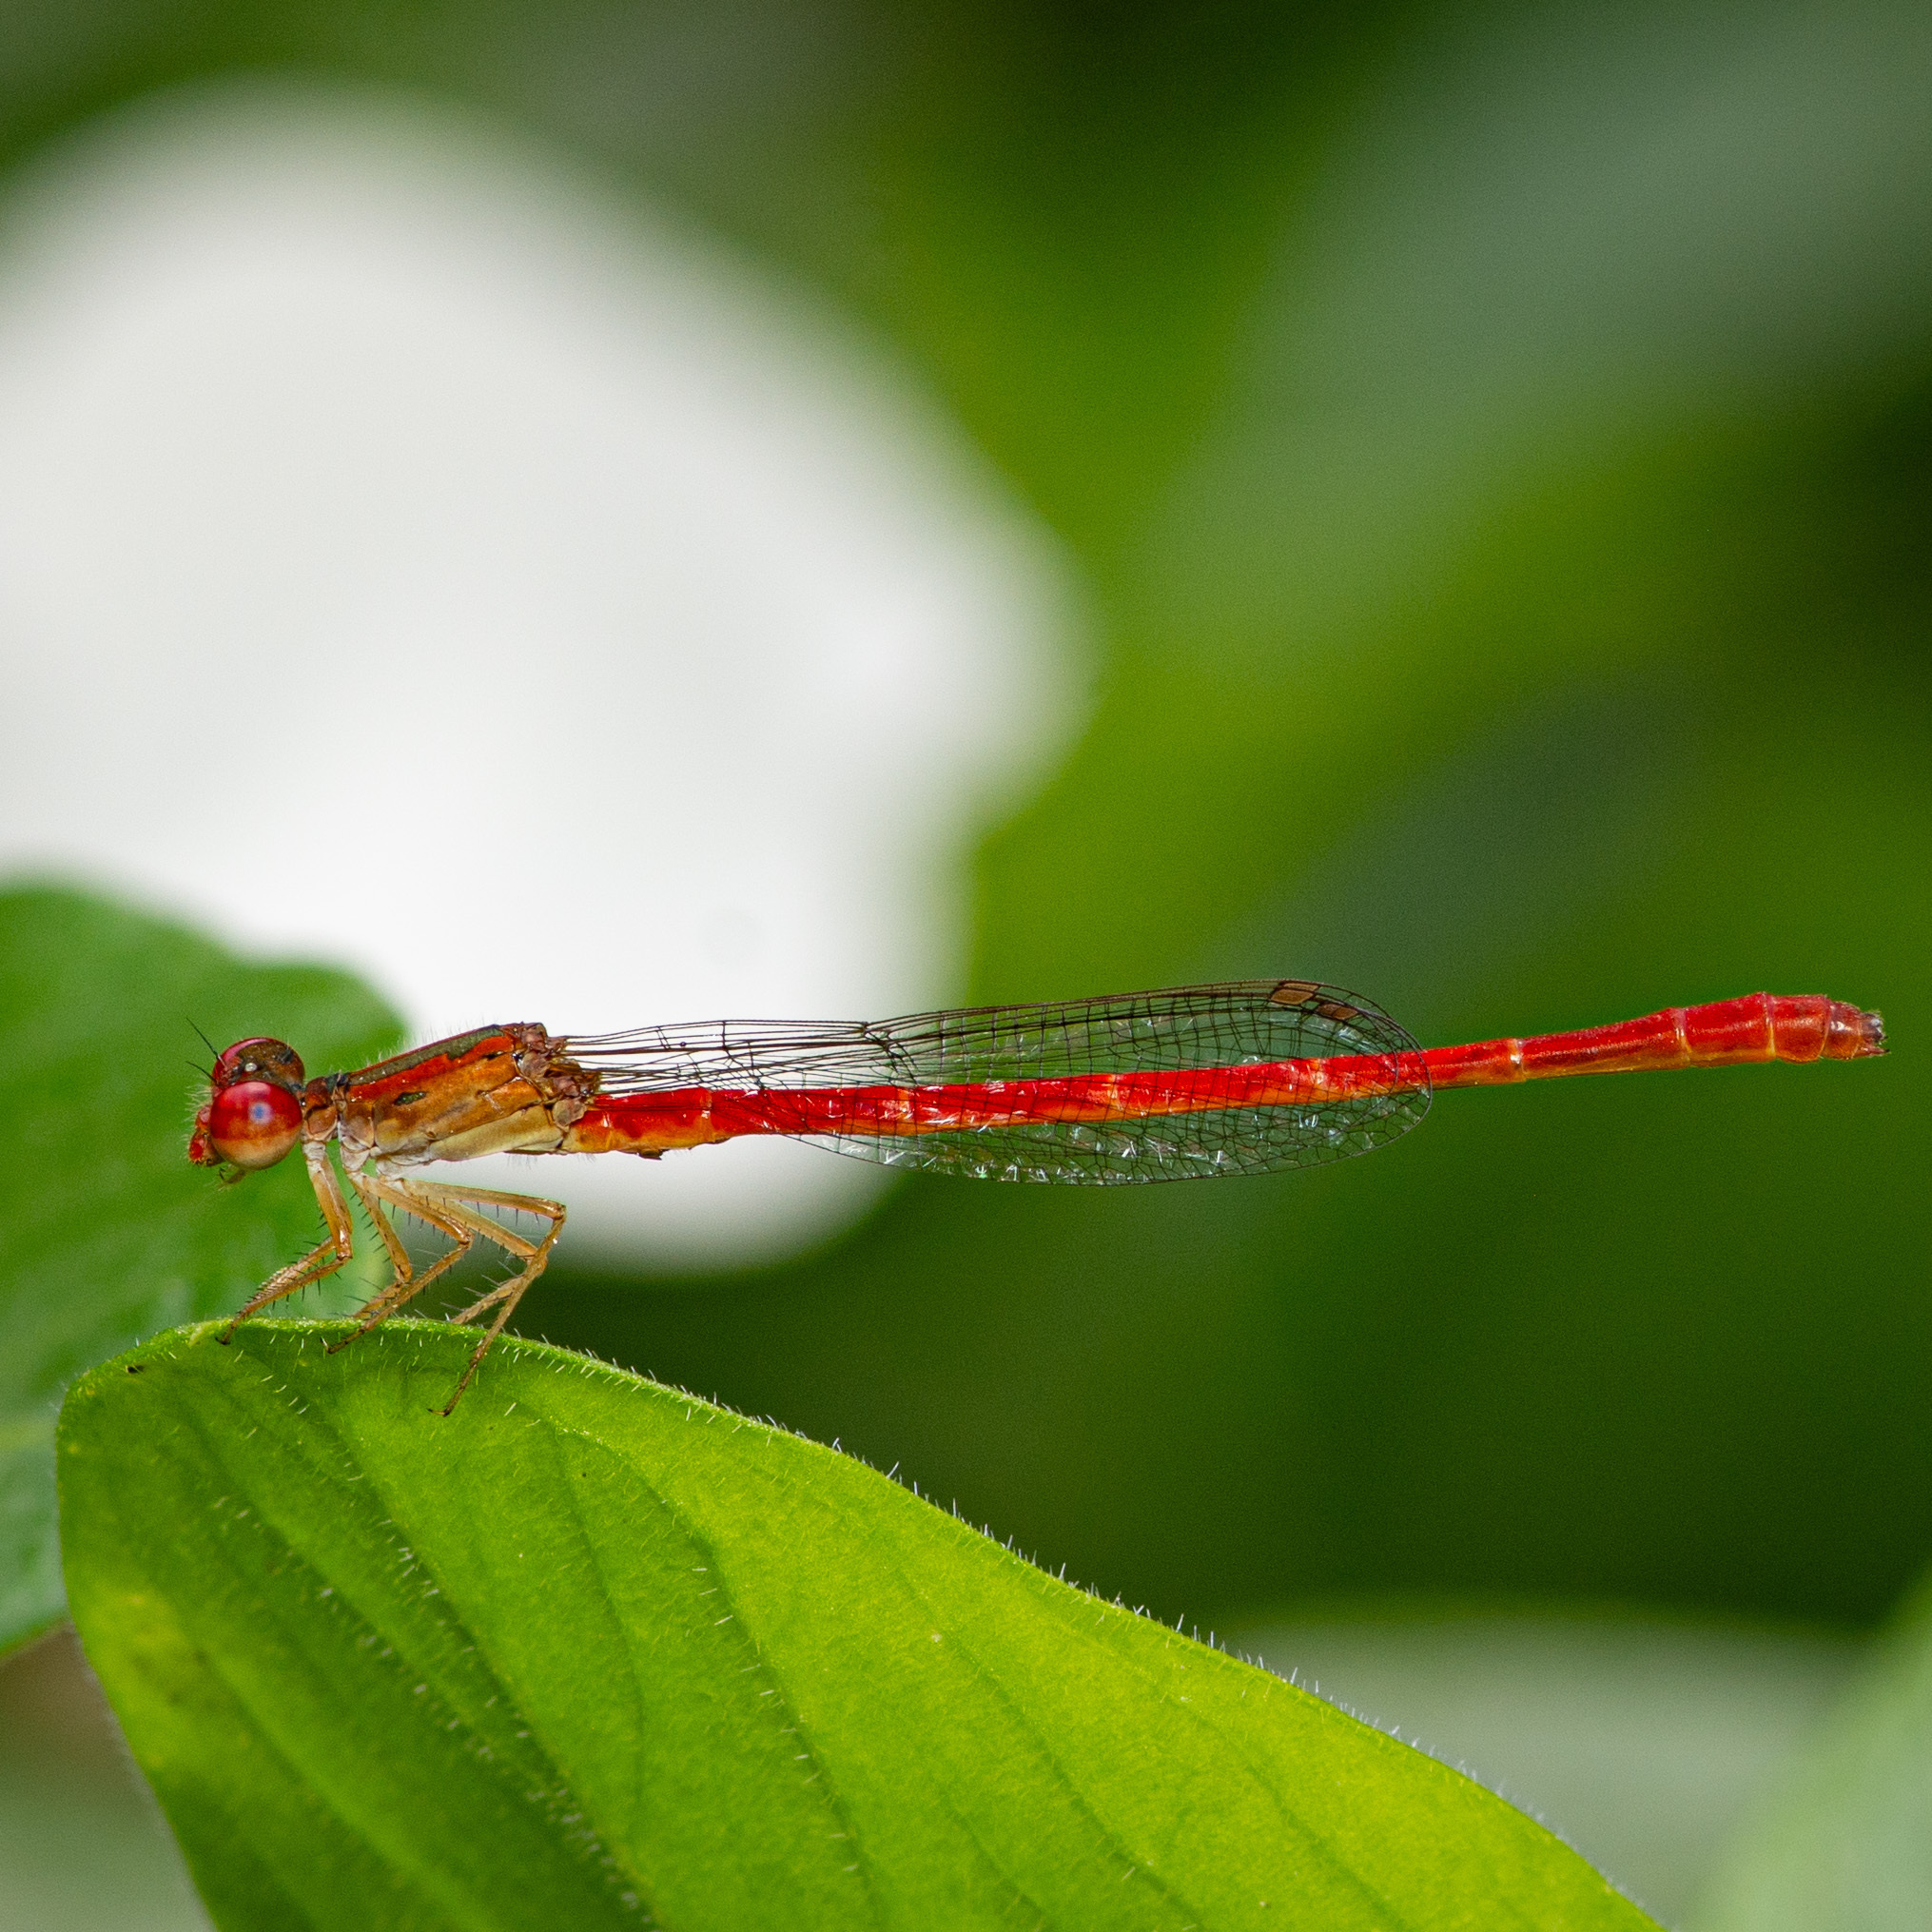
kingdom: Animalia
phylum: Arthropoda
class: Insecta
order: Odonata
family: Coenagrionidae
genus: Telebasis
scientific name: Telebasis salva
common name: Desert firetail
